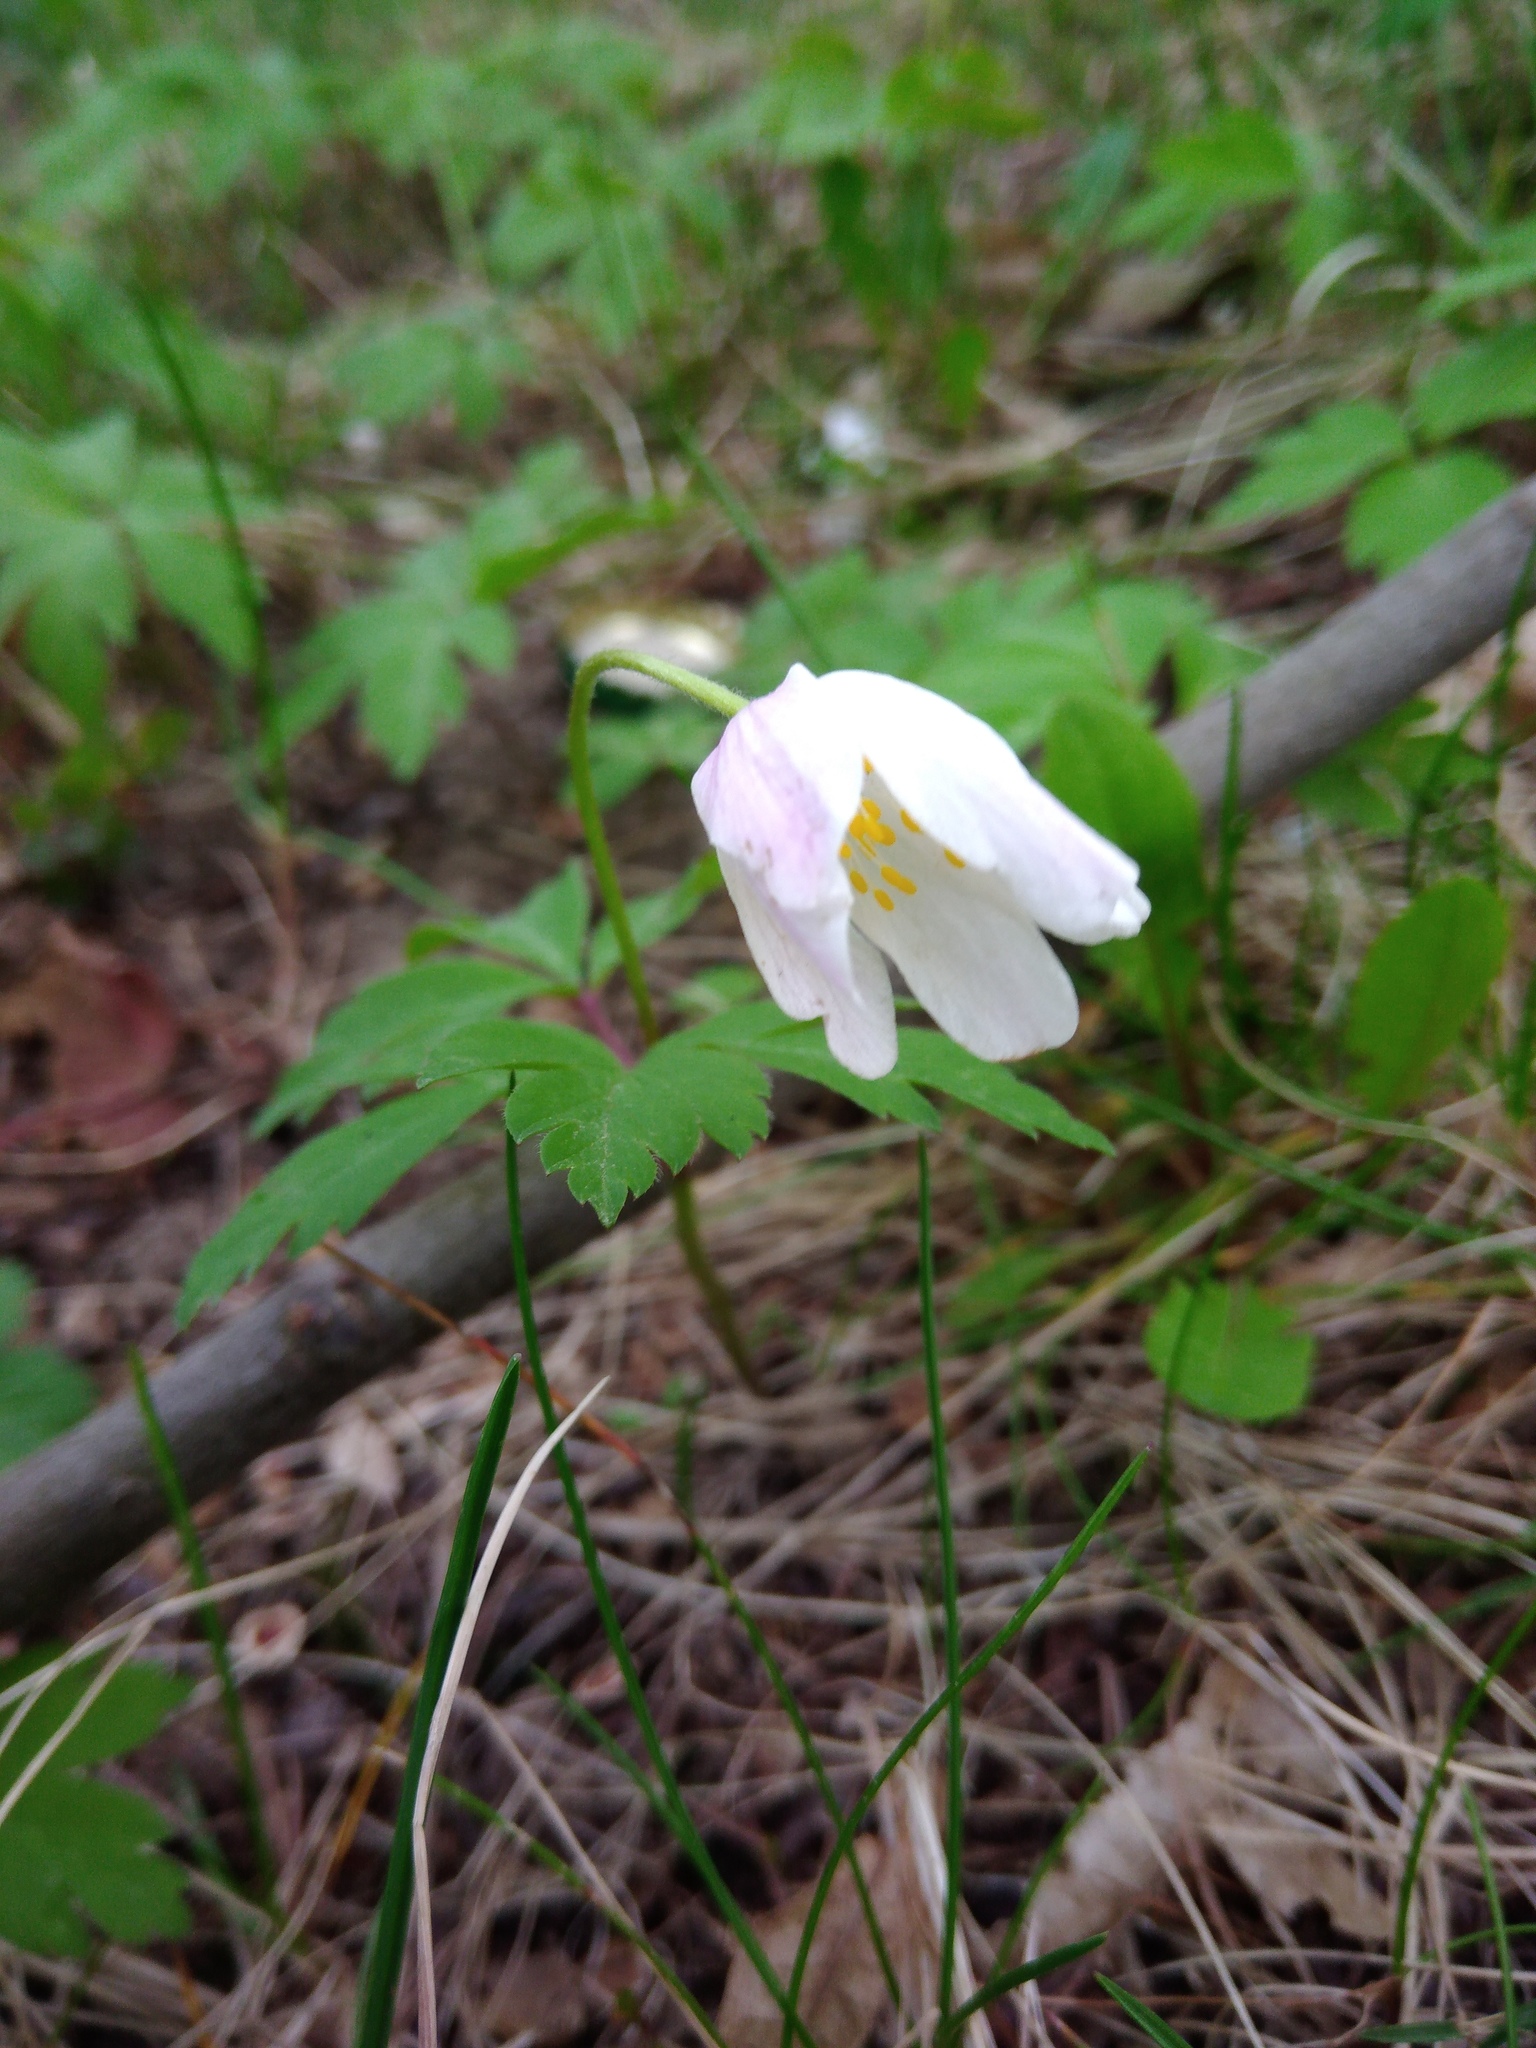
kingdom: Plantae
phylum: Tracheophyta
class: Magnoliopsida
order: Ranunculales
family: Ranunculaceae
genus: Anemone
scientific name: Anemone nemorosa
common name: Wood anemone
